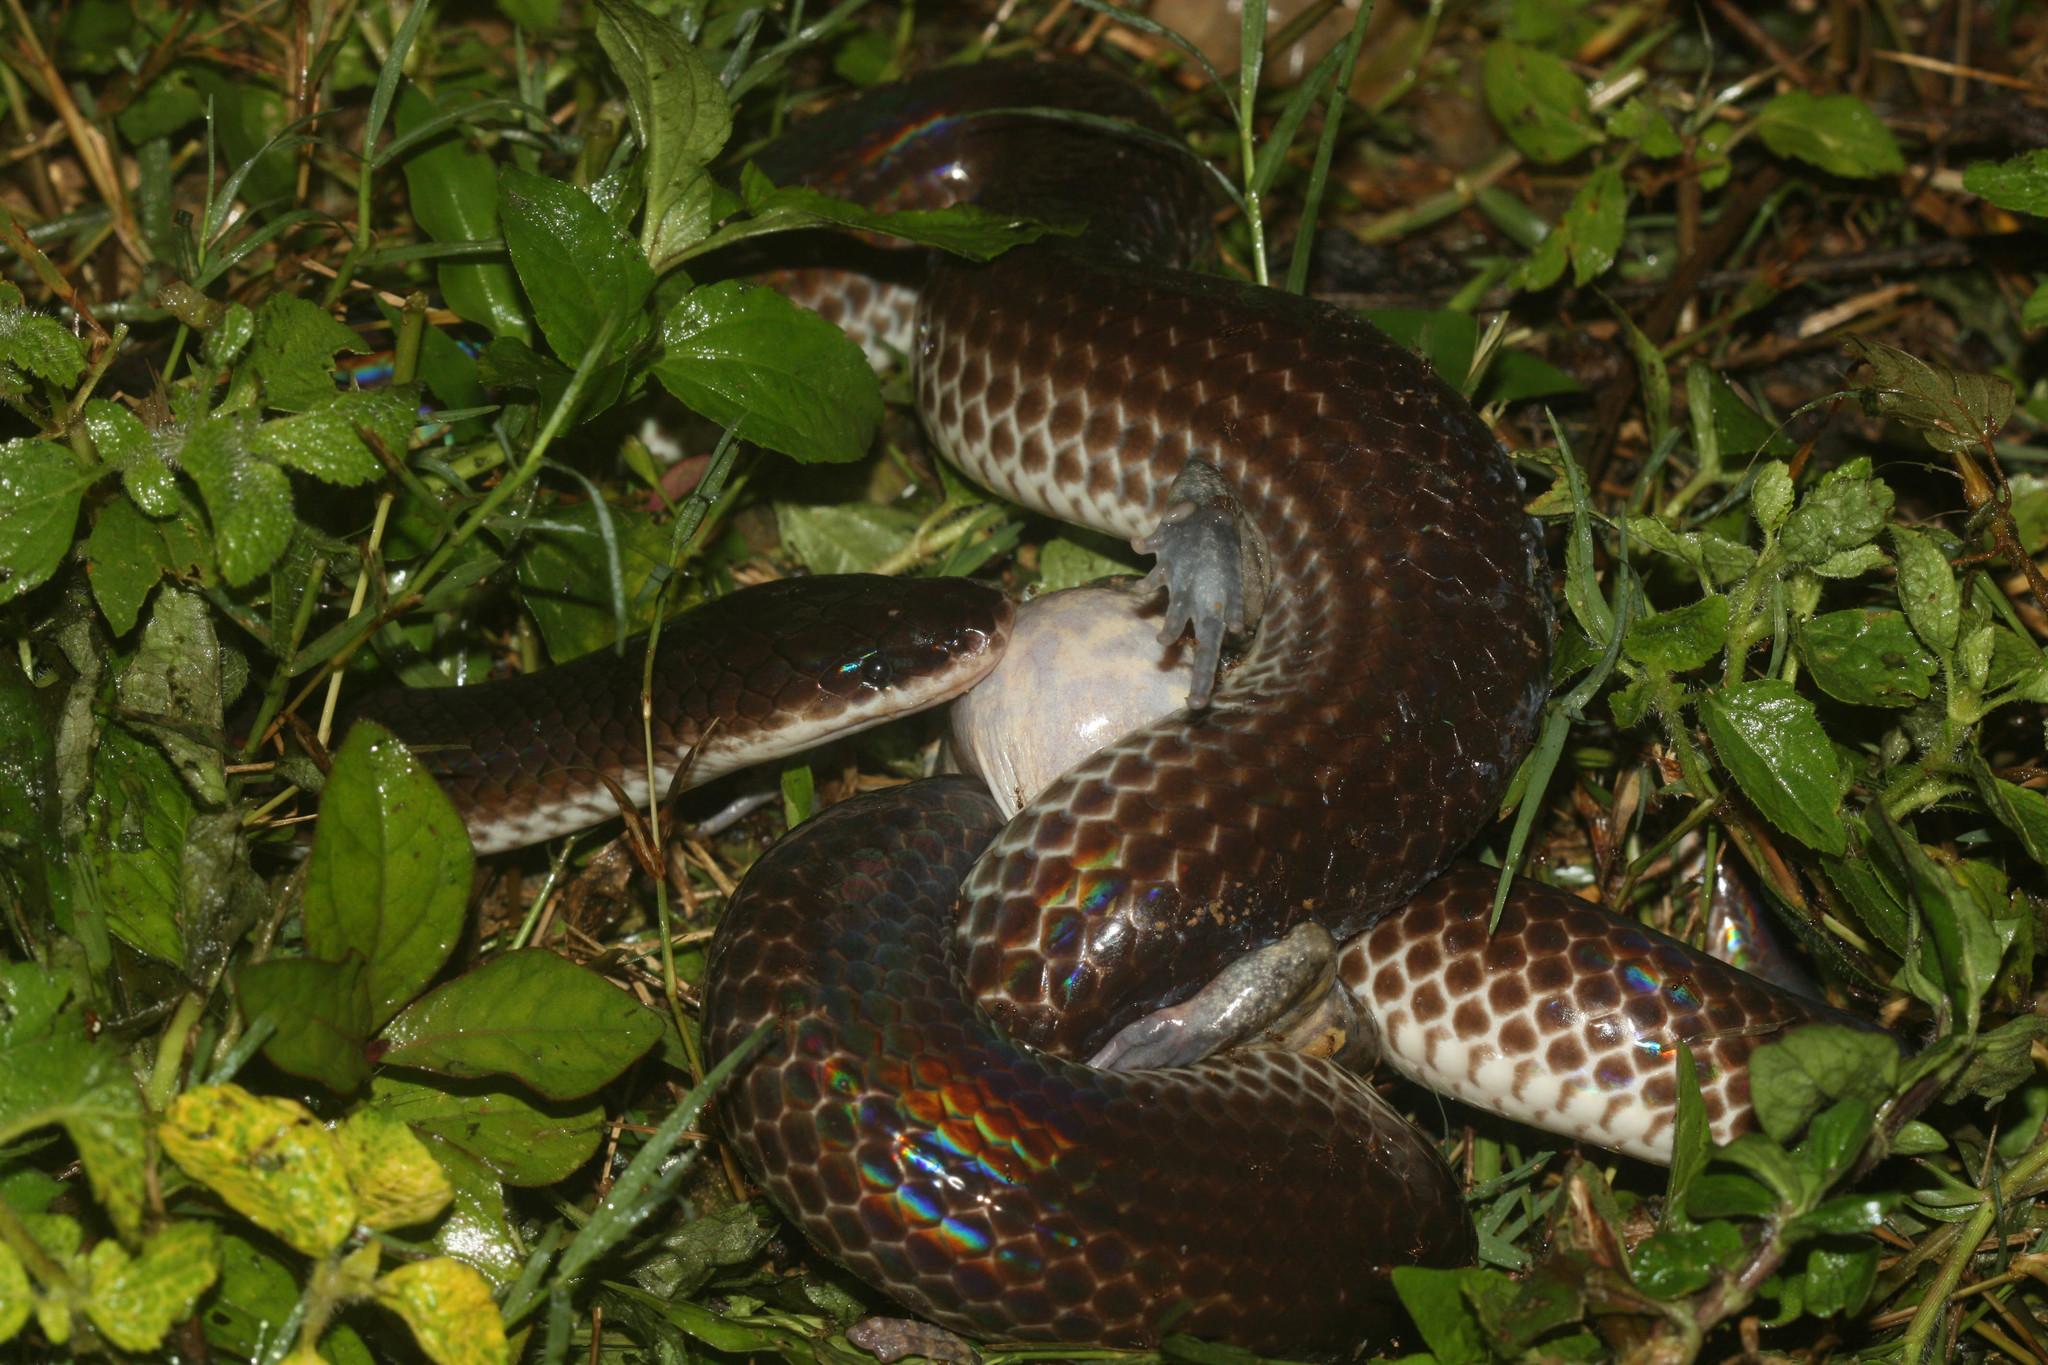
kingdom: Animalia
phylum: Chordata
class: Squamata
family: Xenopeltidae
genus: Xenopeltis
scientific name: Xenopeltis unicolor
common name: Sunbeam snake
